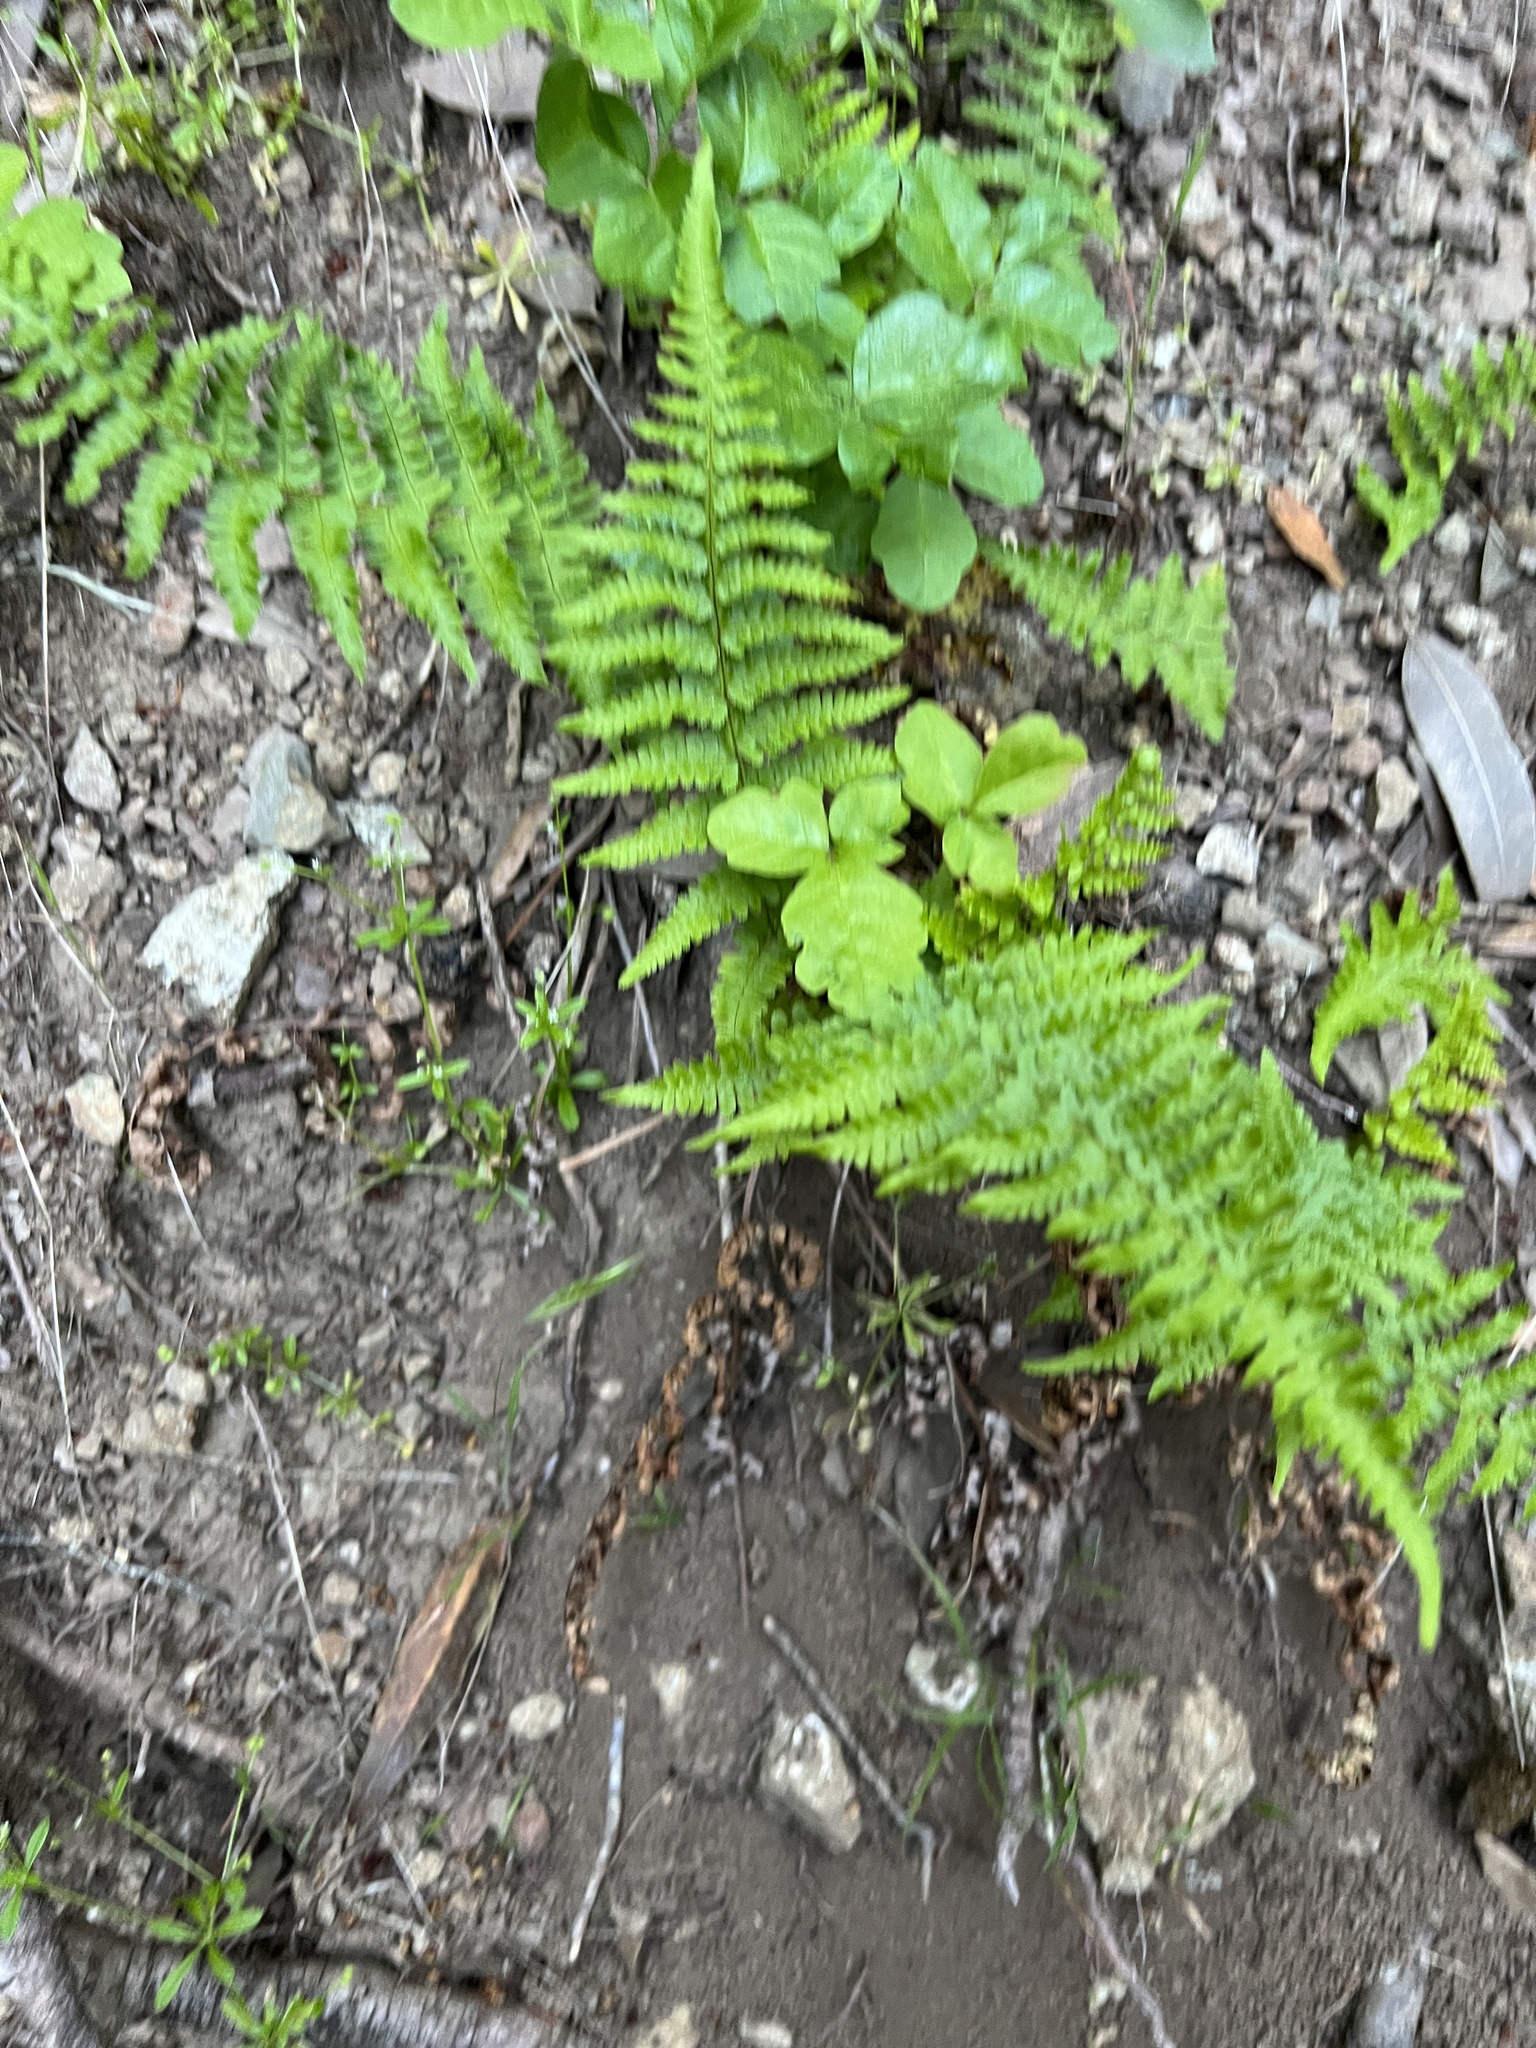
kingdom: Plantae
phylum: Tracheophyta
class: Polypodiopsida
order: Polypodiales
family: Dryopteridaceae
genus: Dryopteris
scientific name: Dryopteris arguta
